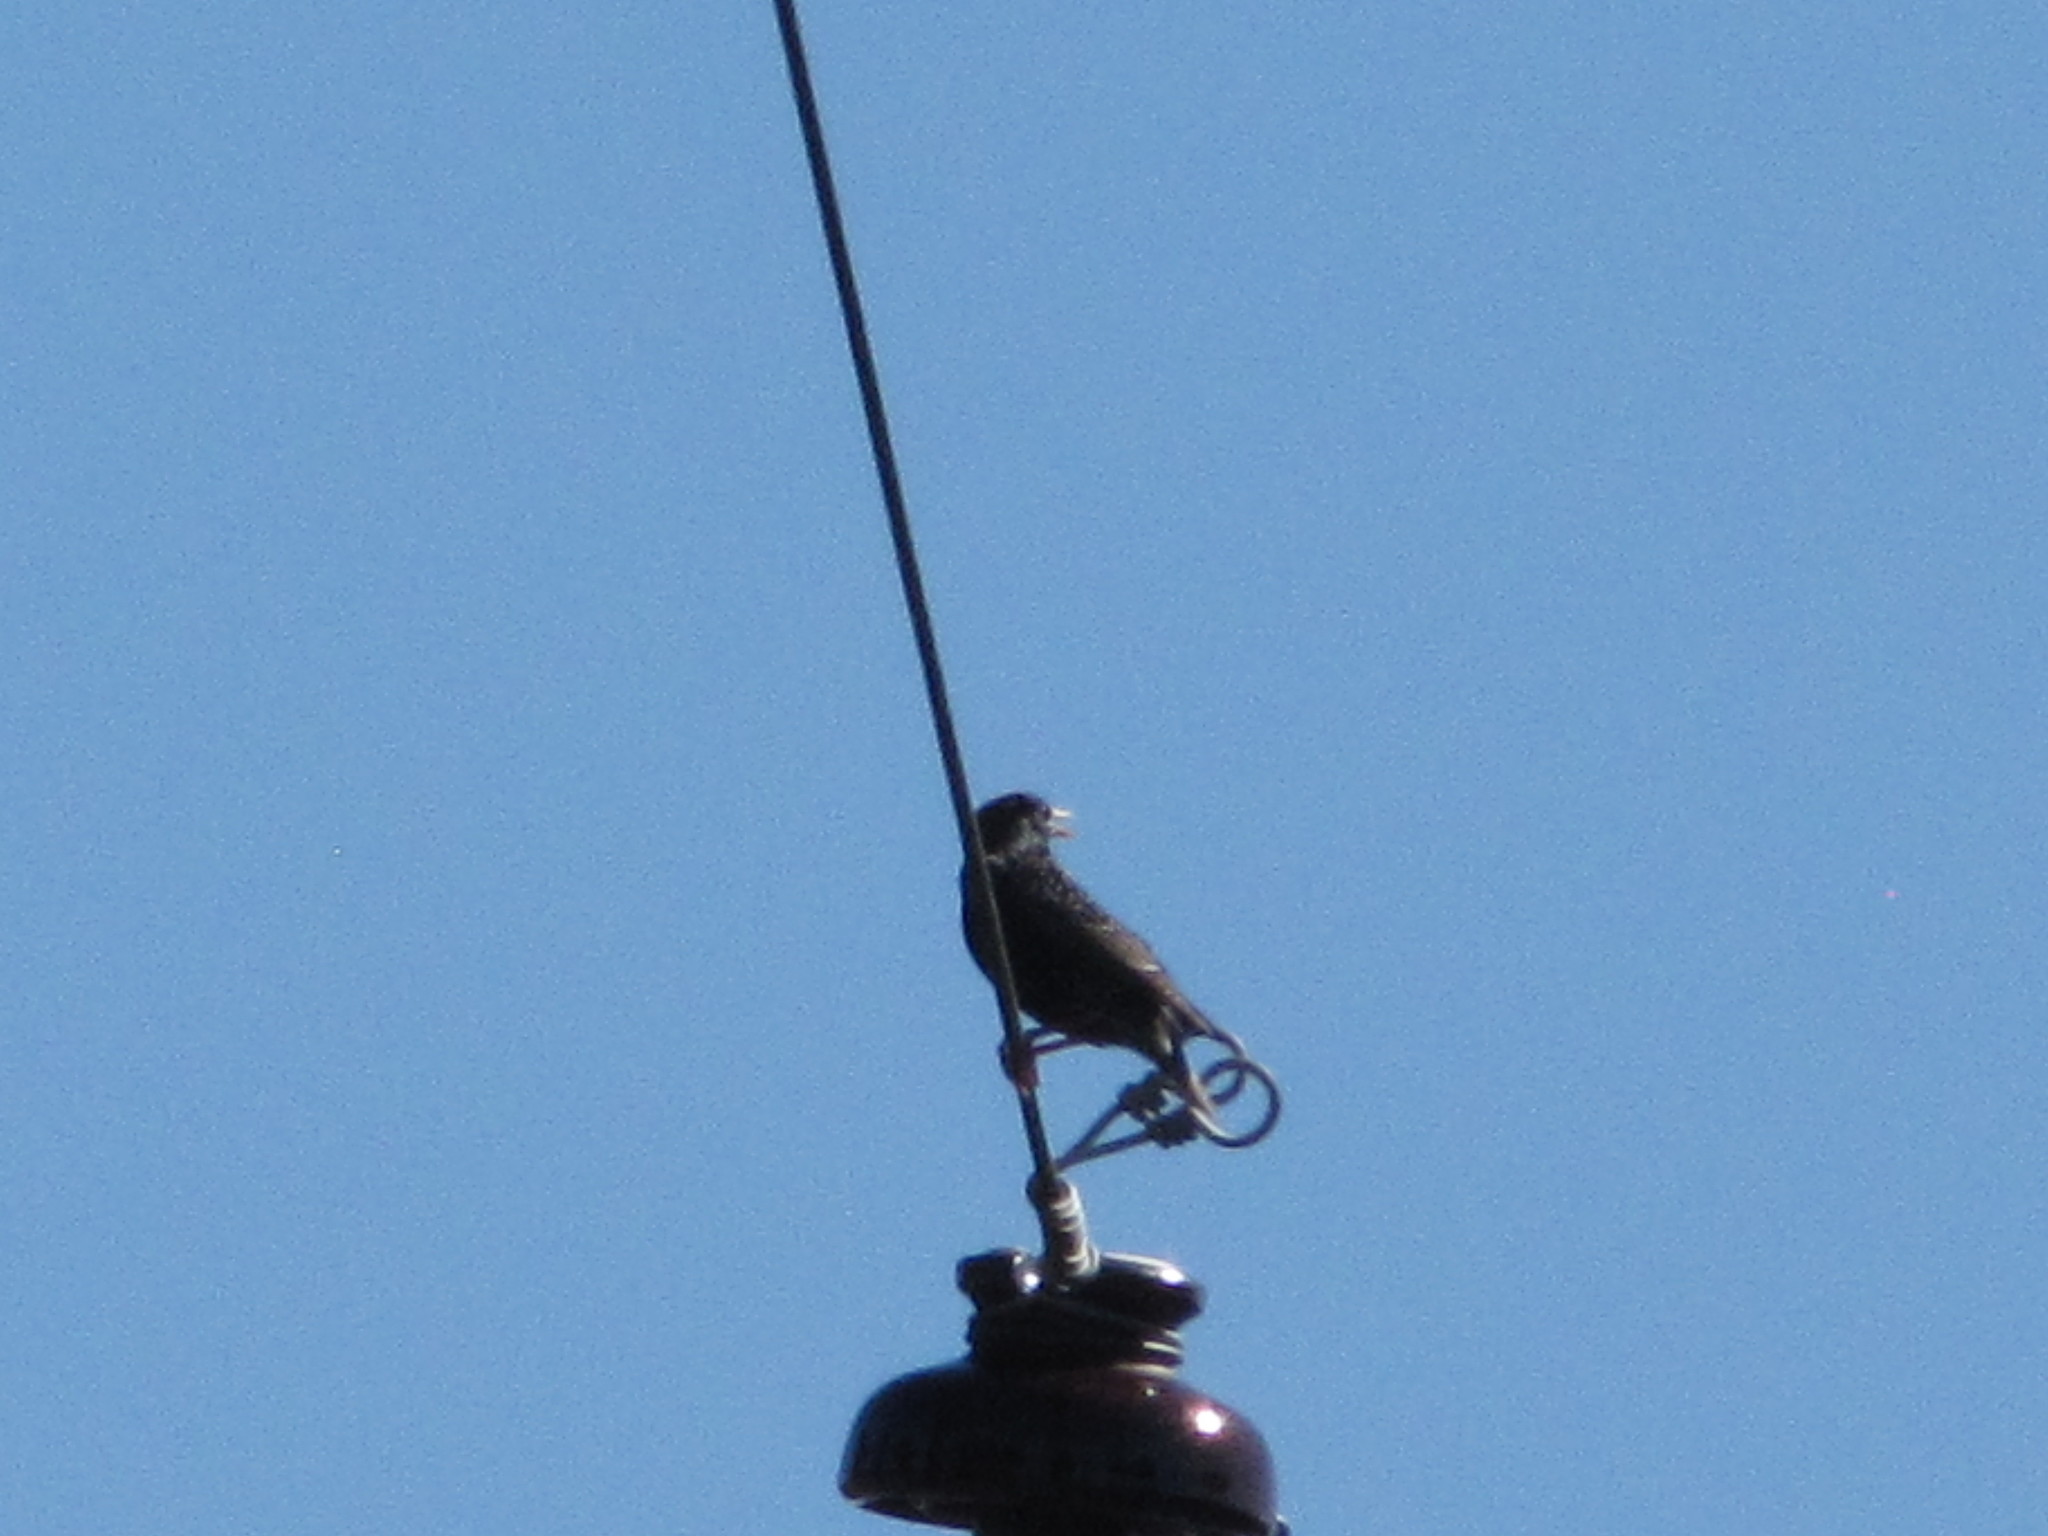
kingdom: Animalia
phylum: Chordata
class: Aves
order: Passeriformes
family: Sturnidae
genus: Sturnus
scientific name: Sturnus vulgaris
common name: Common starling
